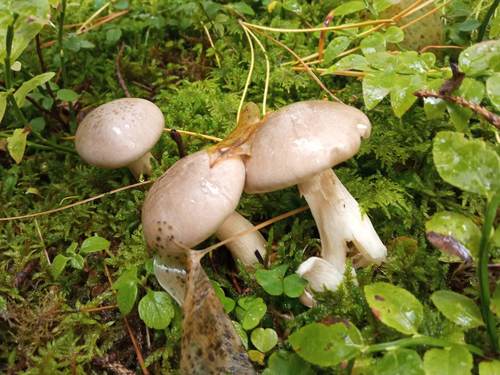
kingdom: Fungi
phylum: Basidiomycota
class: Agaricomycetes
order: Agaricales
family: Hygrophoraceae
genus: Hygrophorus
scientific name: Hygrophorus hedrychii
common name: Sweet woodwax
